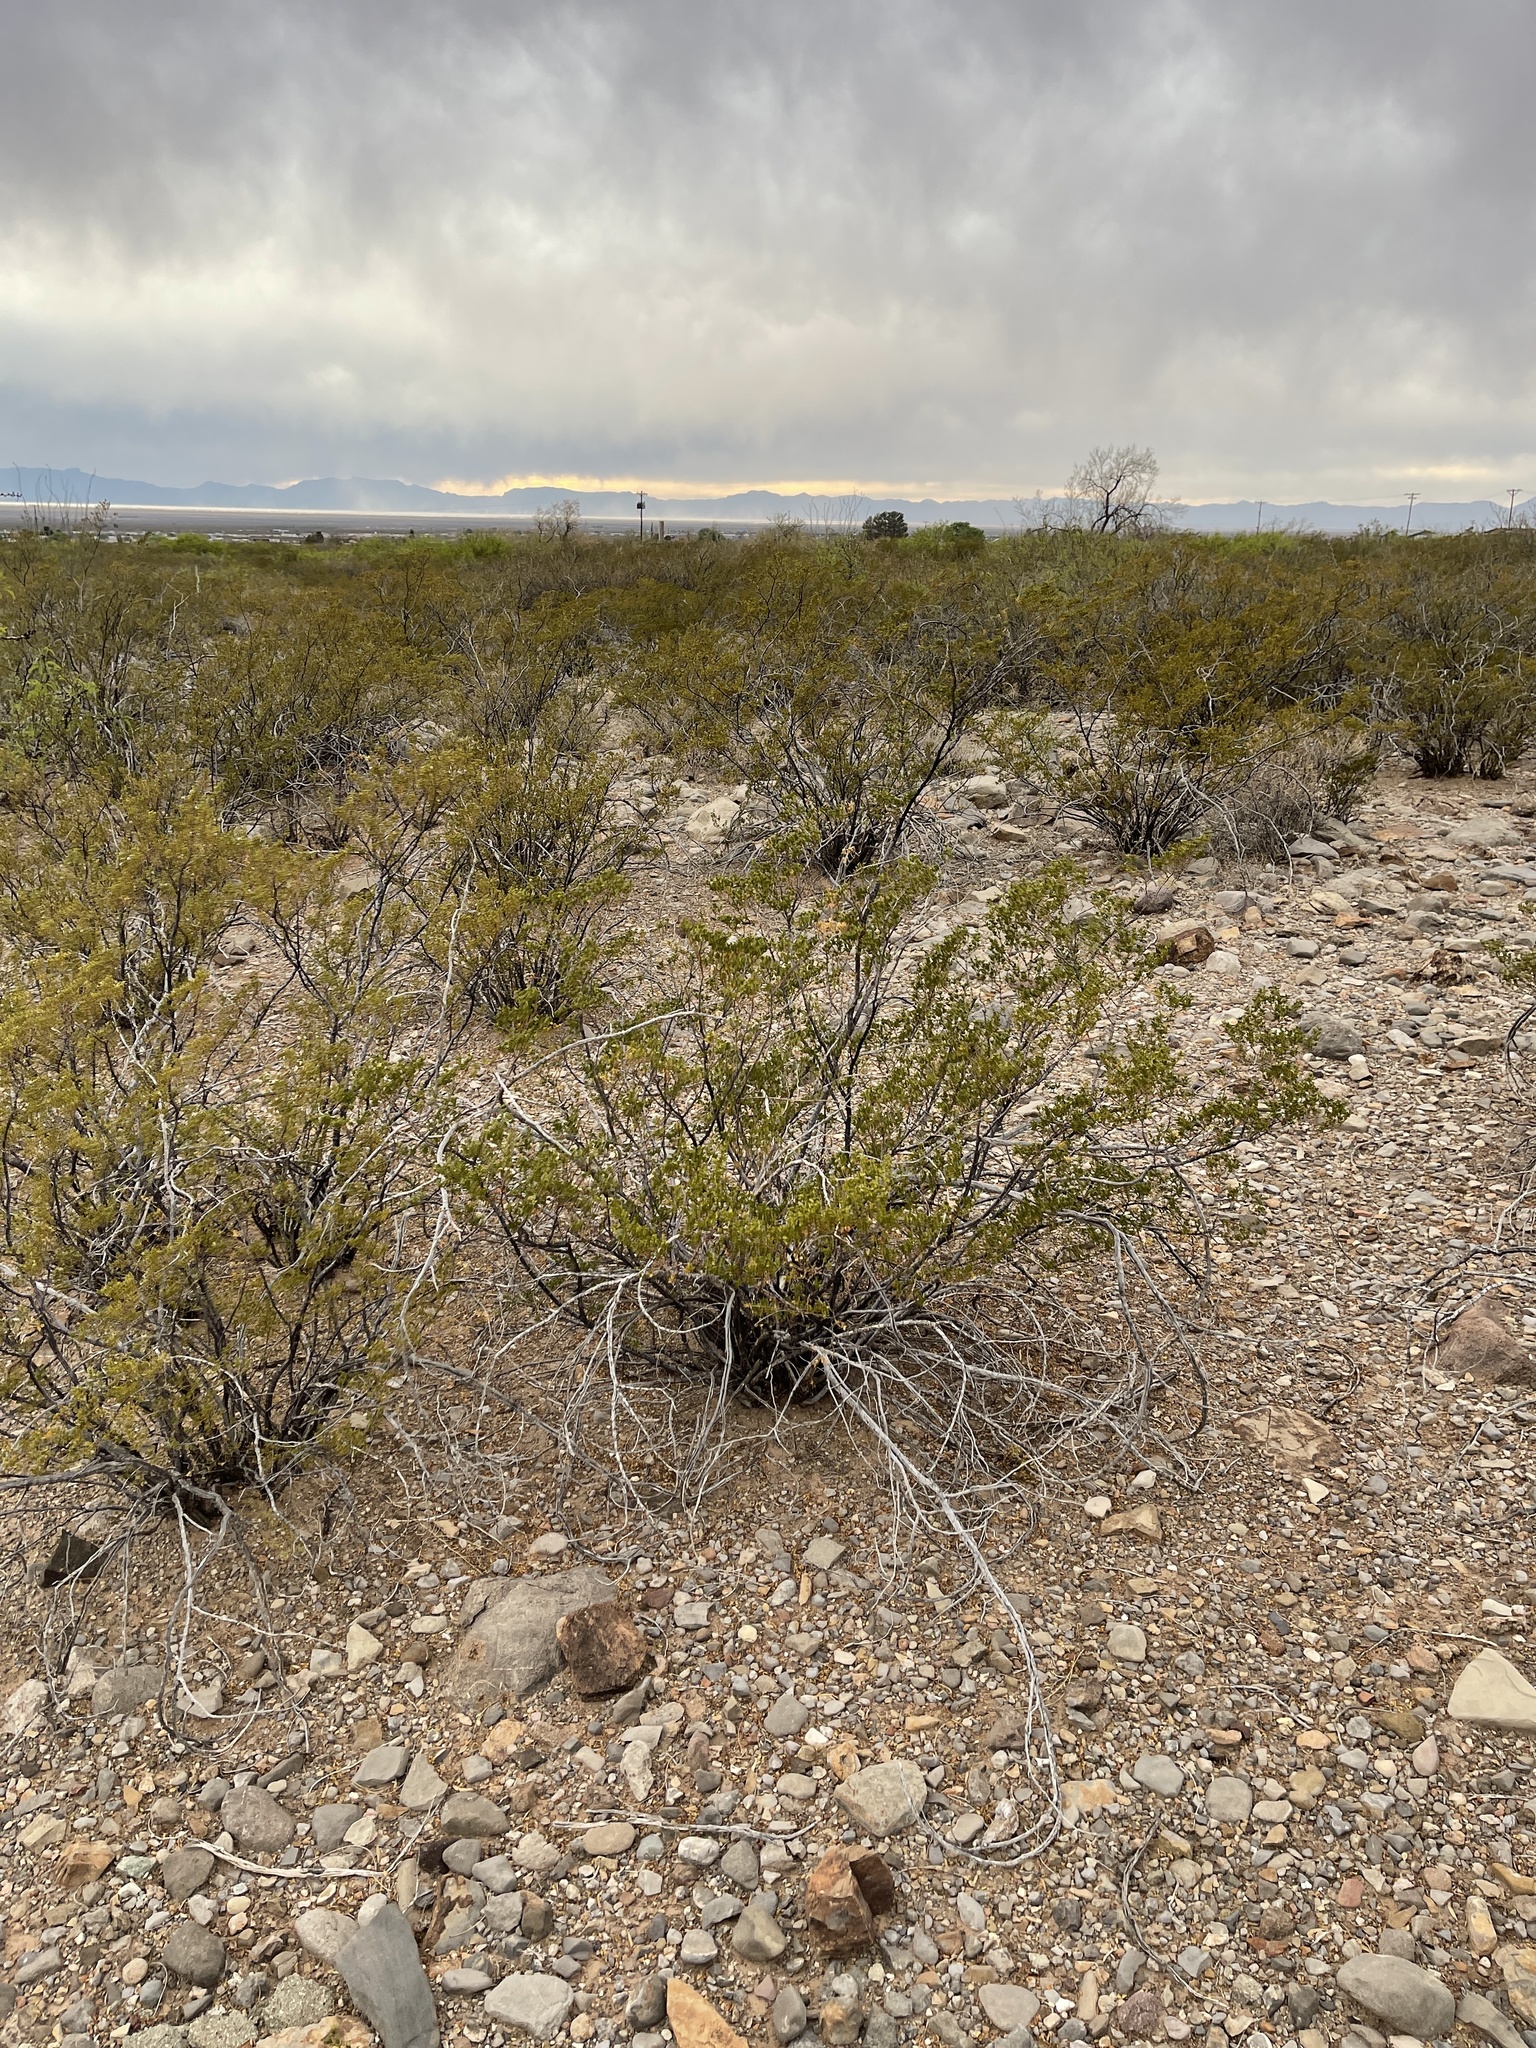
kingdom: Plantae
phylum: Tracheophyta
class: Magnoliopsida
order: Zygophyllales
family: Zygophyllaceae
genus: Larrea
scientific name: Larrea tridentata
